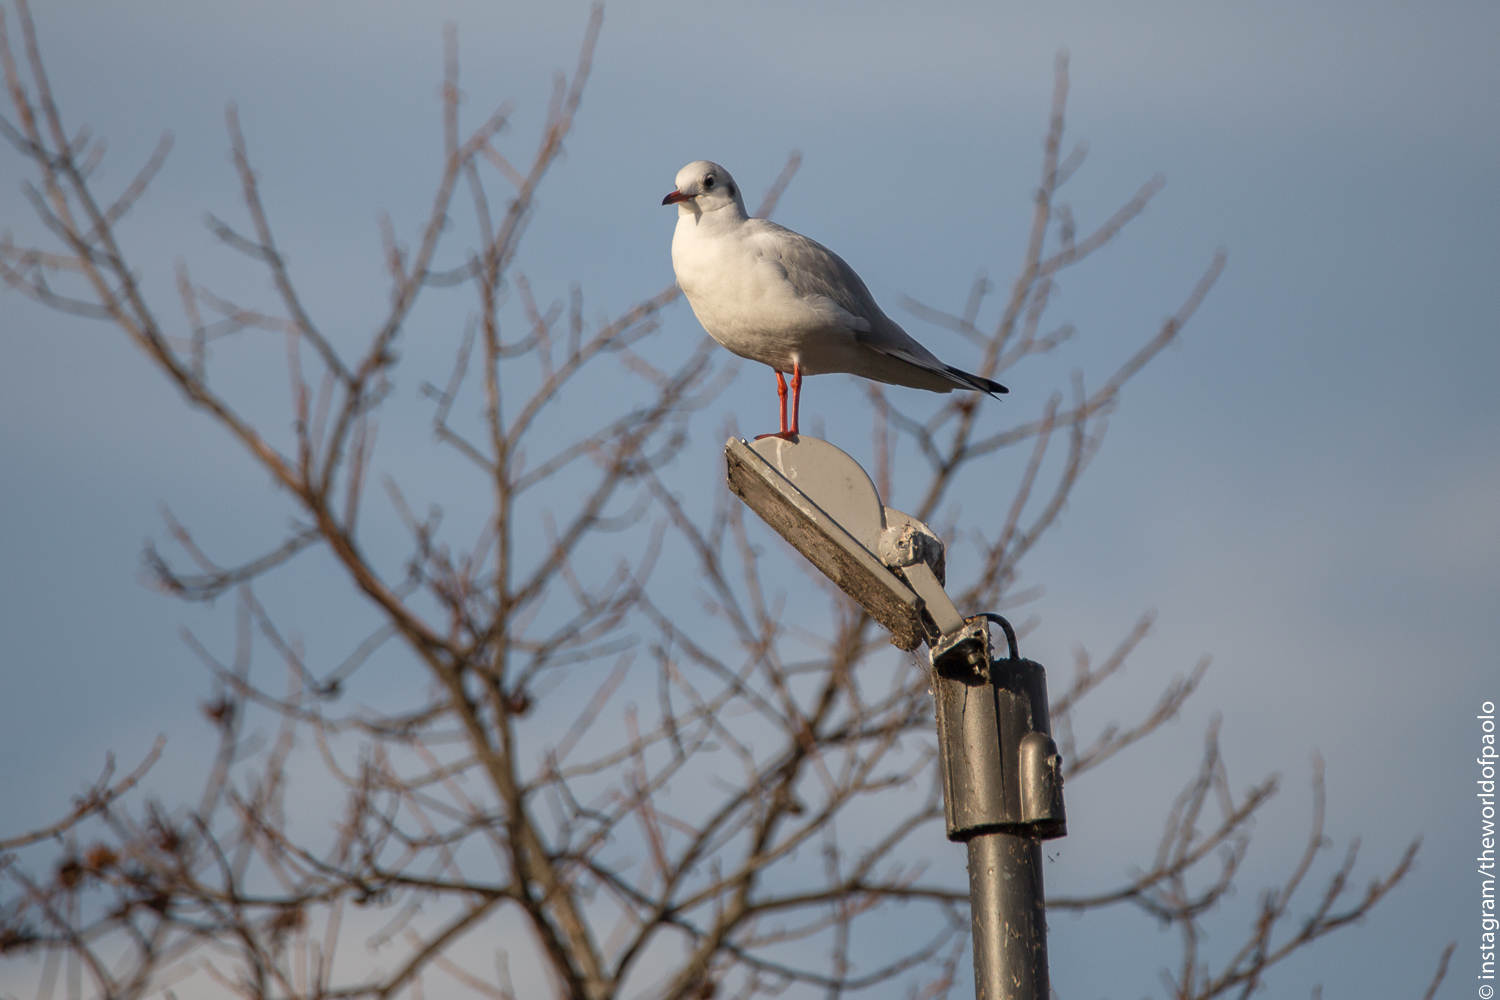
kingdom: Animalia
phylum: Chordata
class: Aves
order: Charadriiformes
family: Laridae
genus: Chroicocephalus
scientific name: Chroicocephalus ridibundus
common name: Black-headed gull
